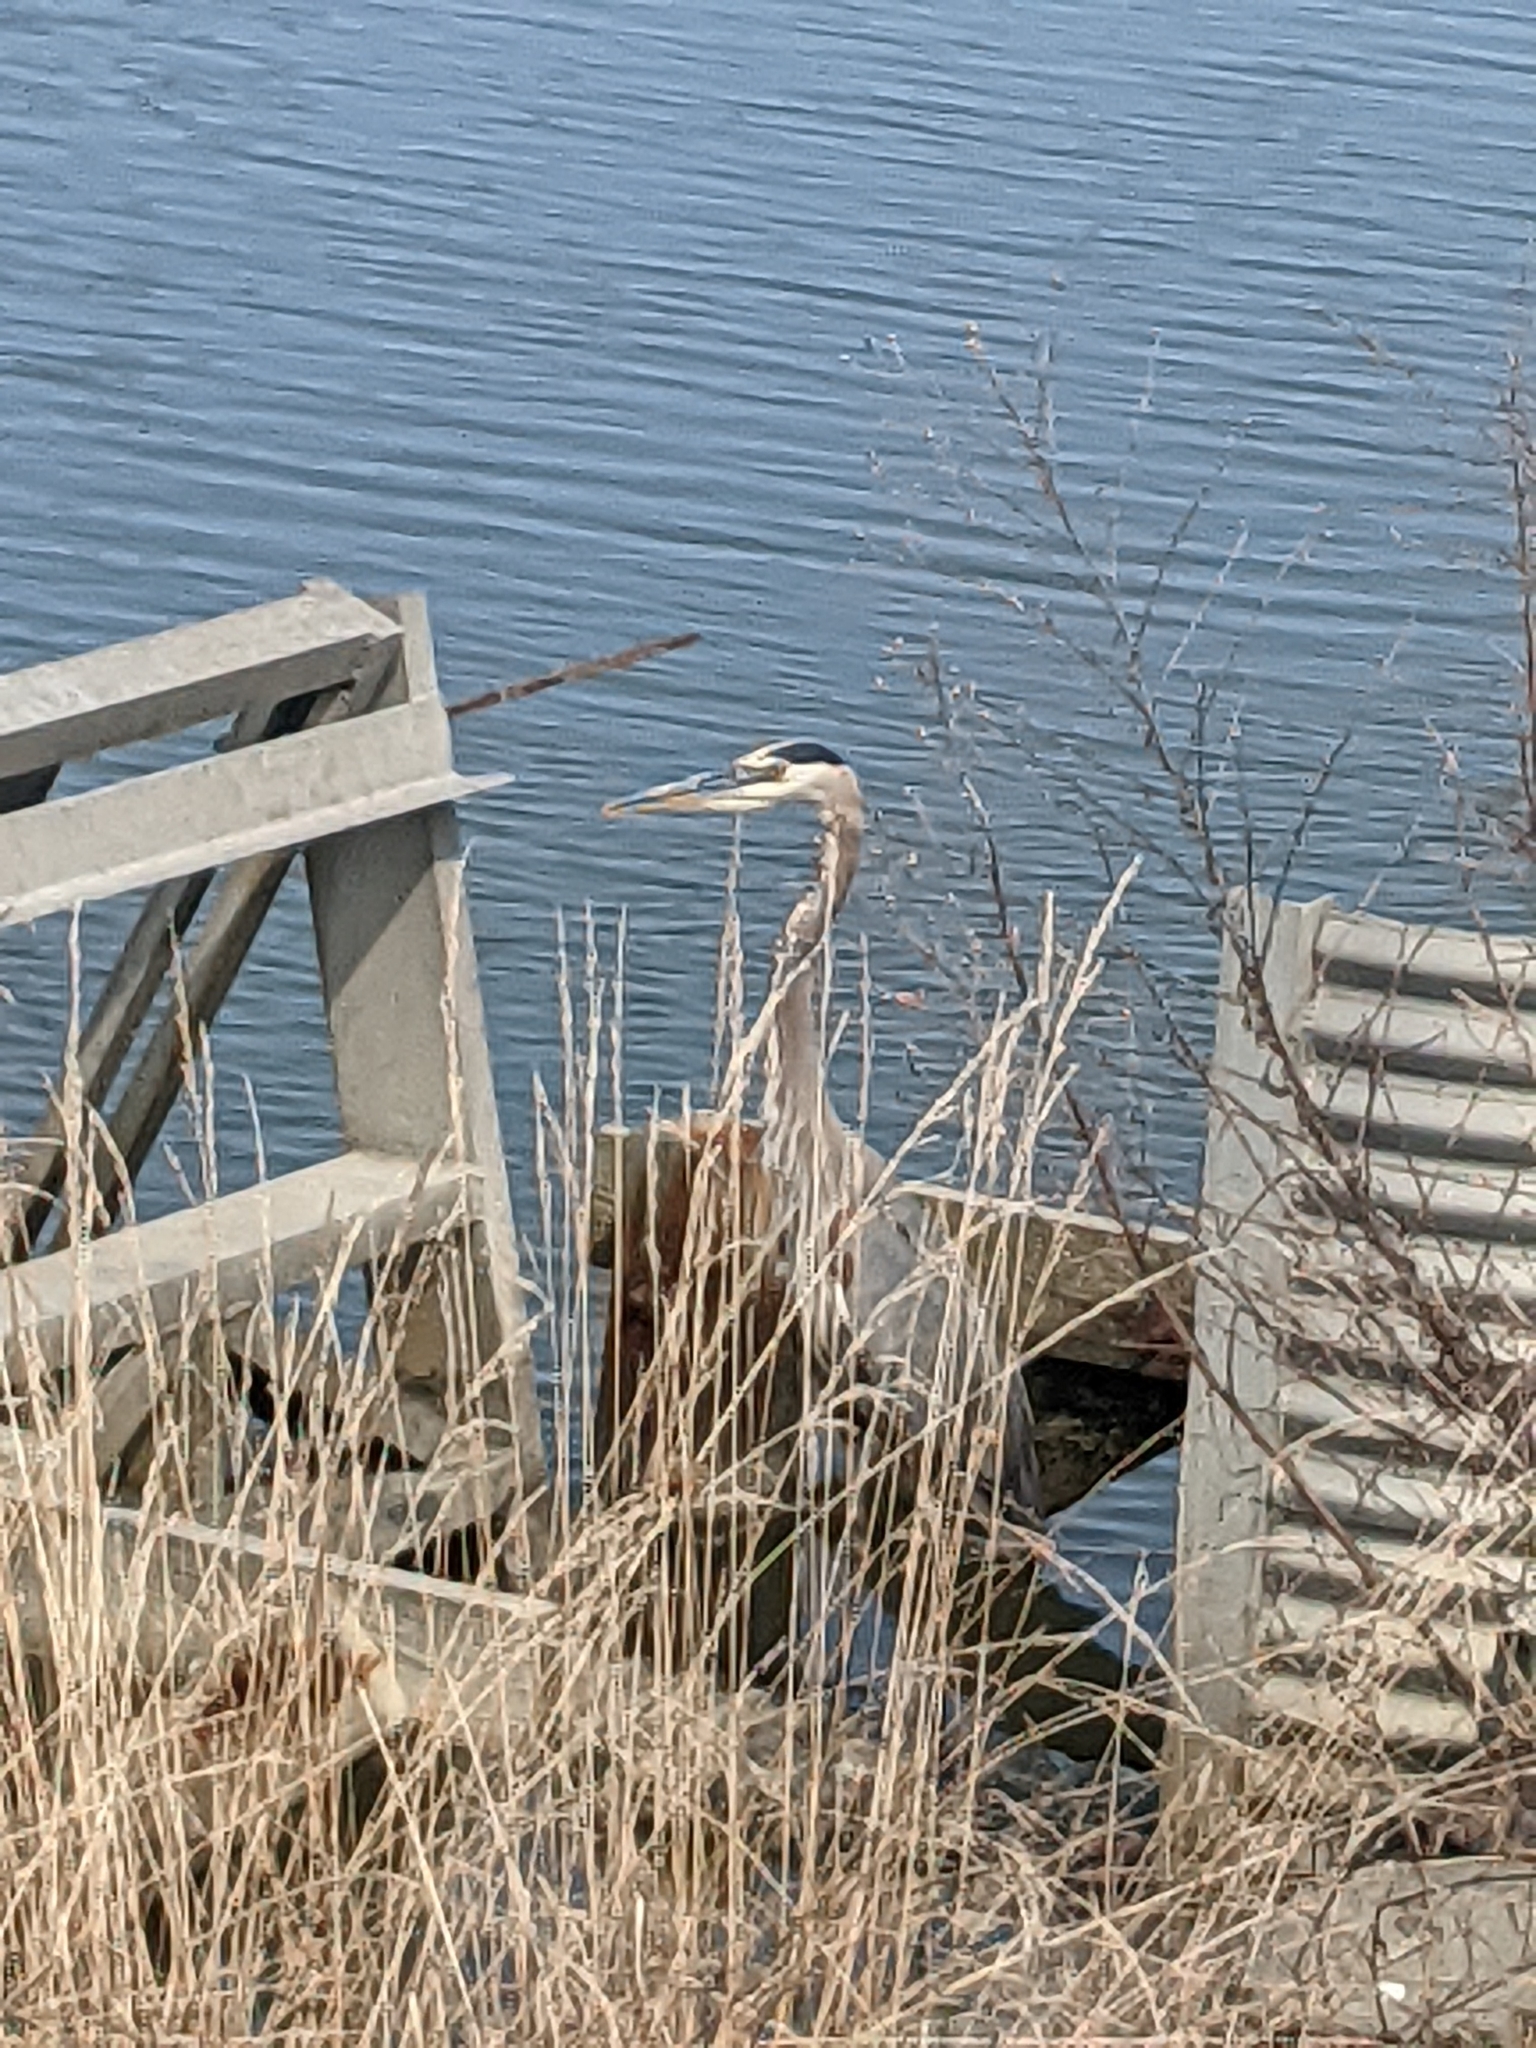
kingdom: Animalia
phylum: Chordata
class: Aves
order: Pelecaniformes
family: Ardeidae
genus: Ardea
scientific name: Ardea herodias
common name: Great blue heron
